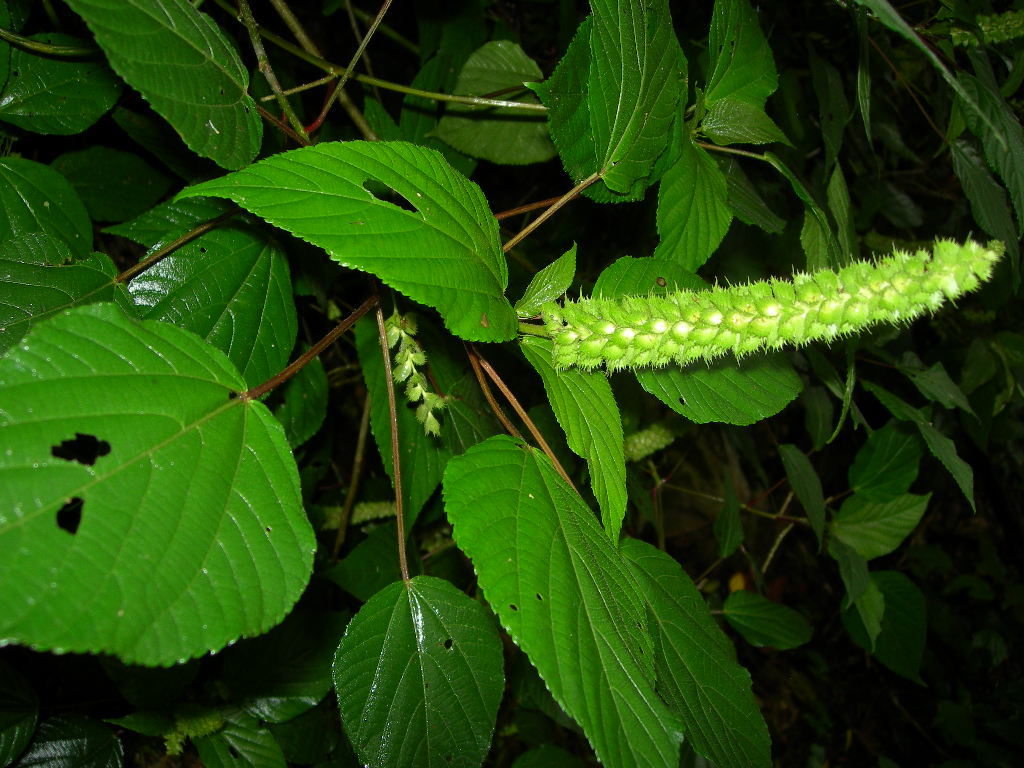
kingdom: Plantae
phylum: Tracheophyta
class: Magnoliopsida
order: Malpighiales
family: Euphorbiaceae
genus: Acalypha
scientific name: Acalypha macrostachyoides
